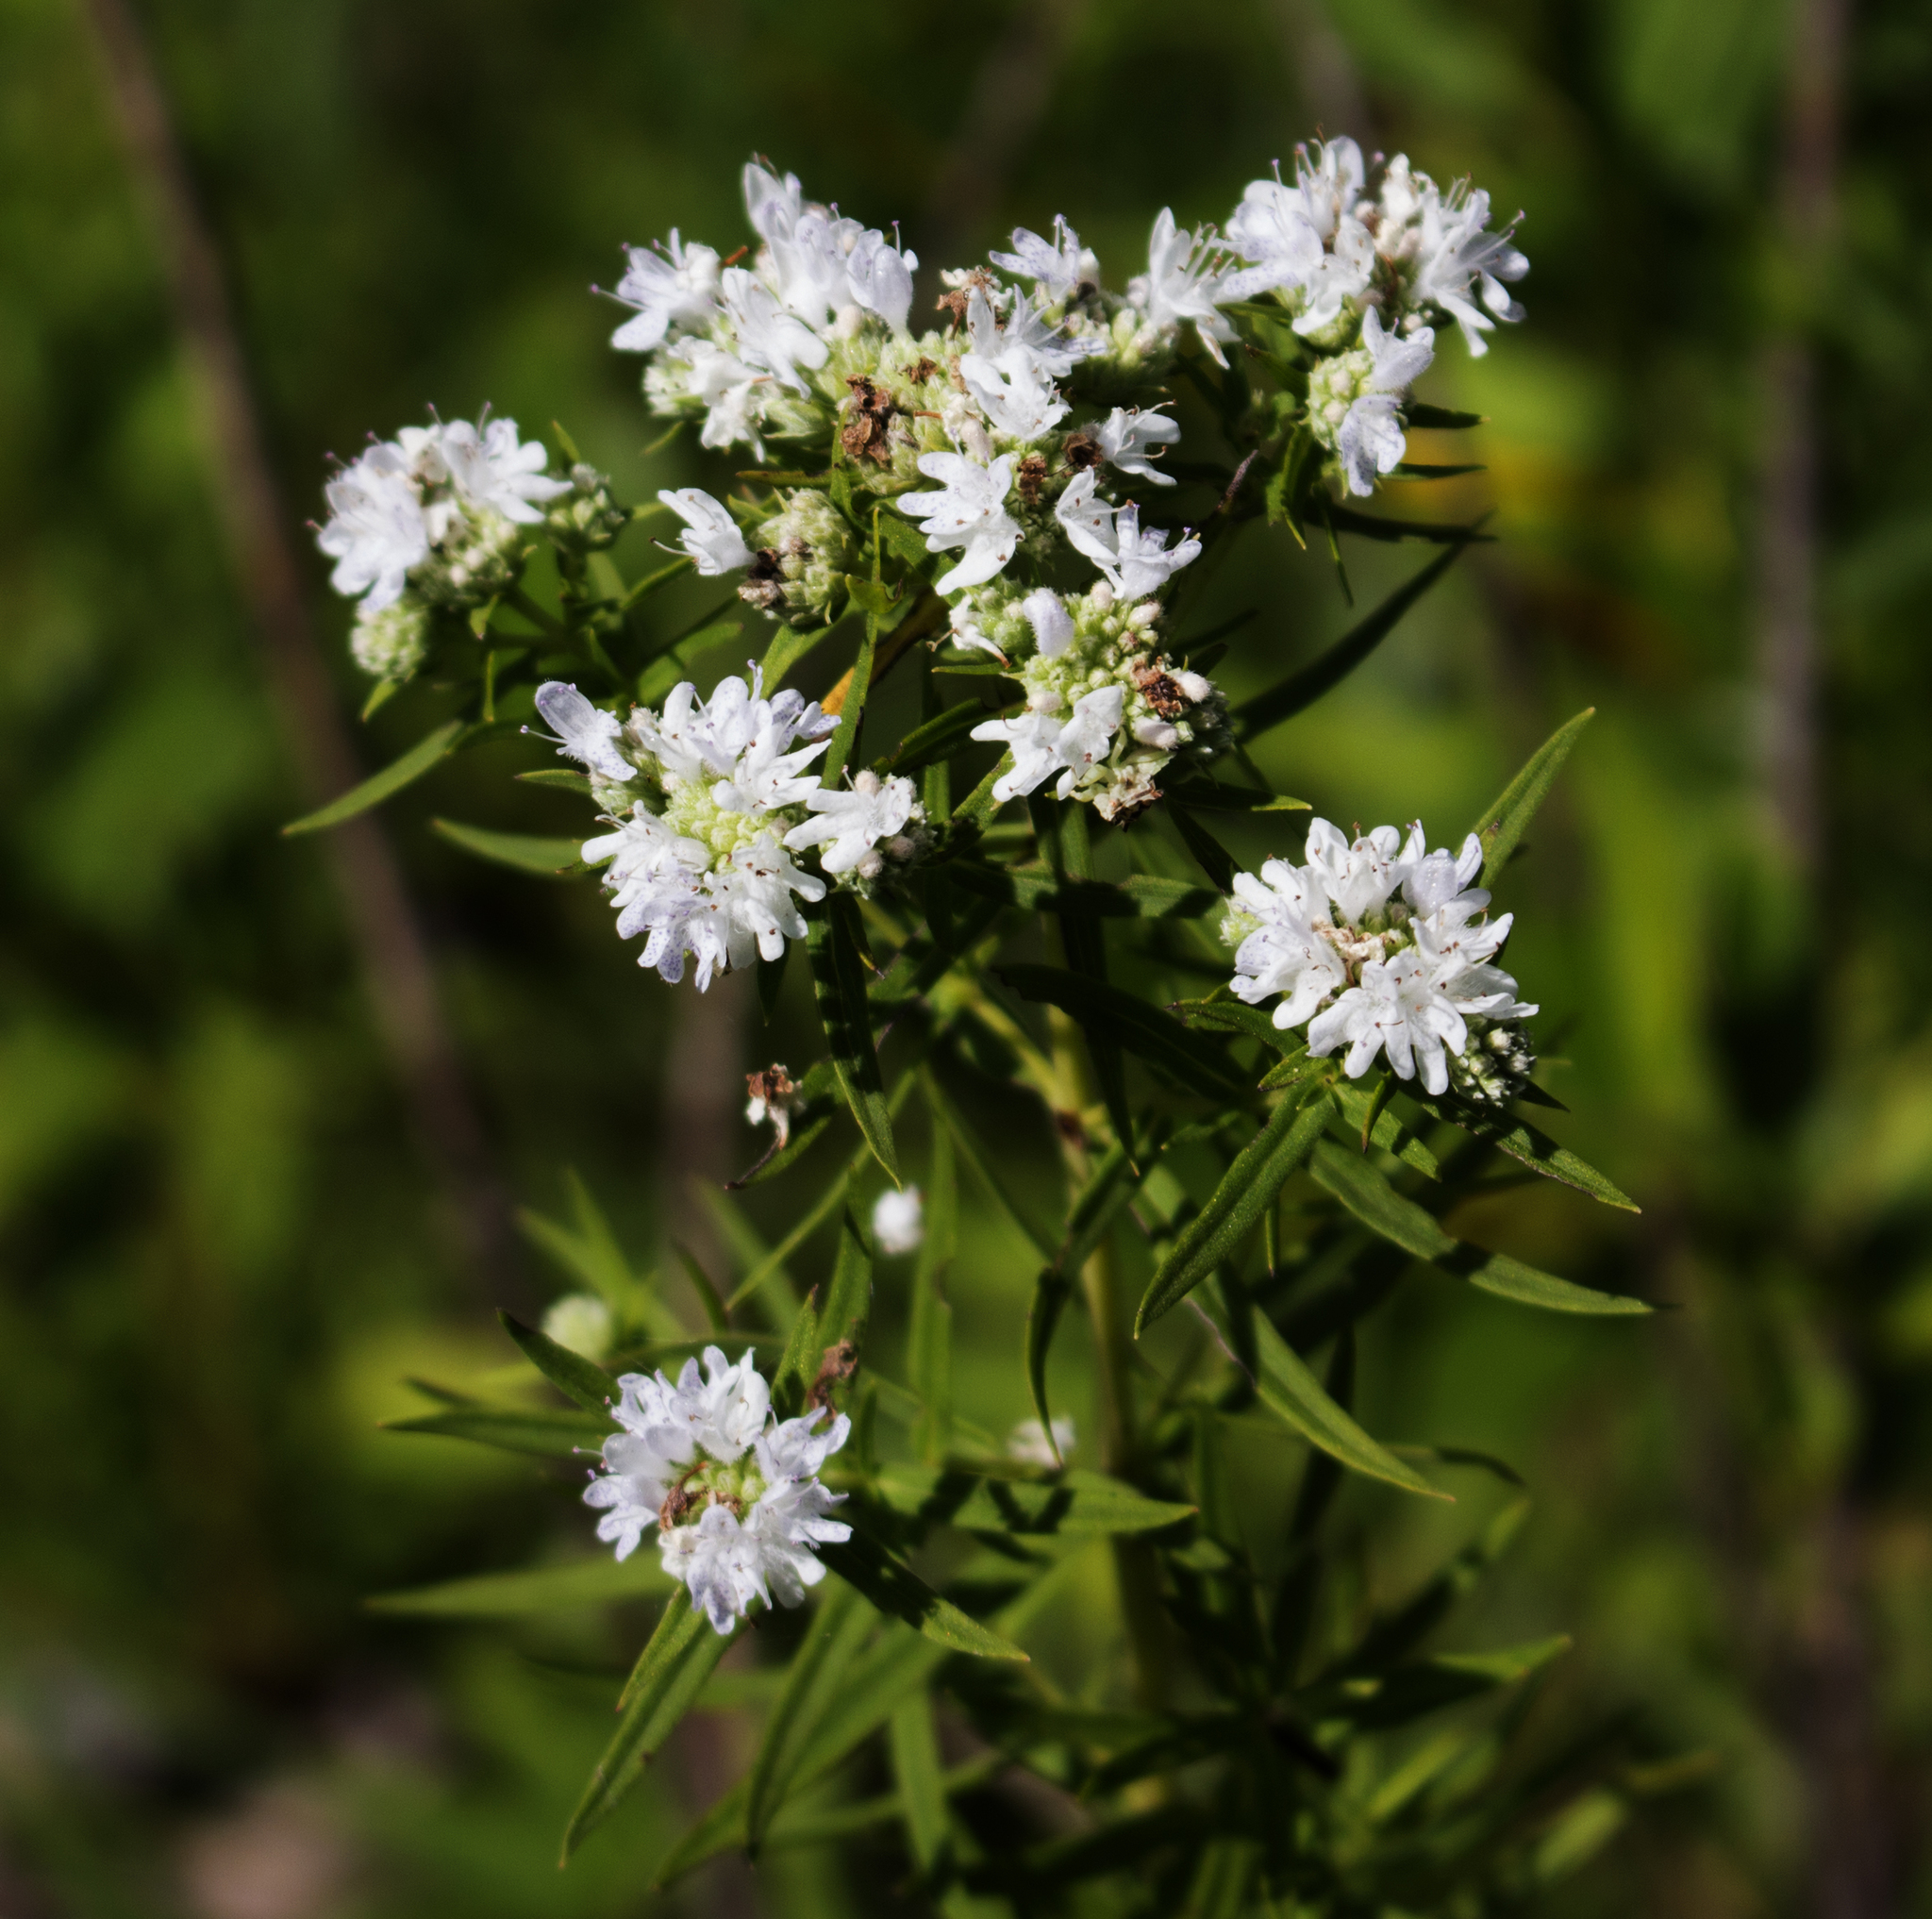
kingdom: Plantae
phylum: Tracheophyta
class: Magnoliopsida
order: Lamiales
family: Lamiaceae
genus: Pycnanthemum
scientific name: Pycnanthemum virginianum
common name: Virginia mountain-mint
